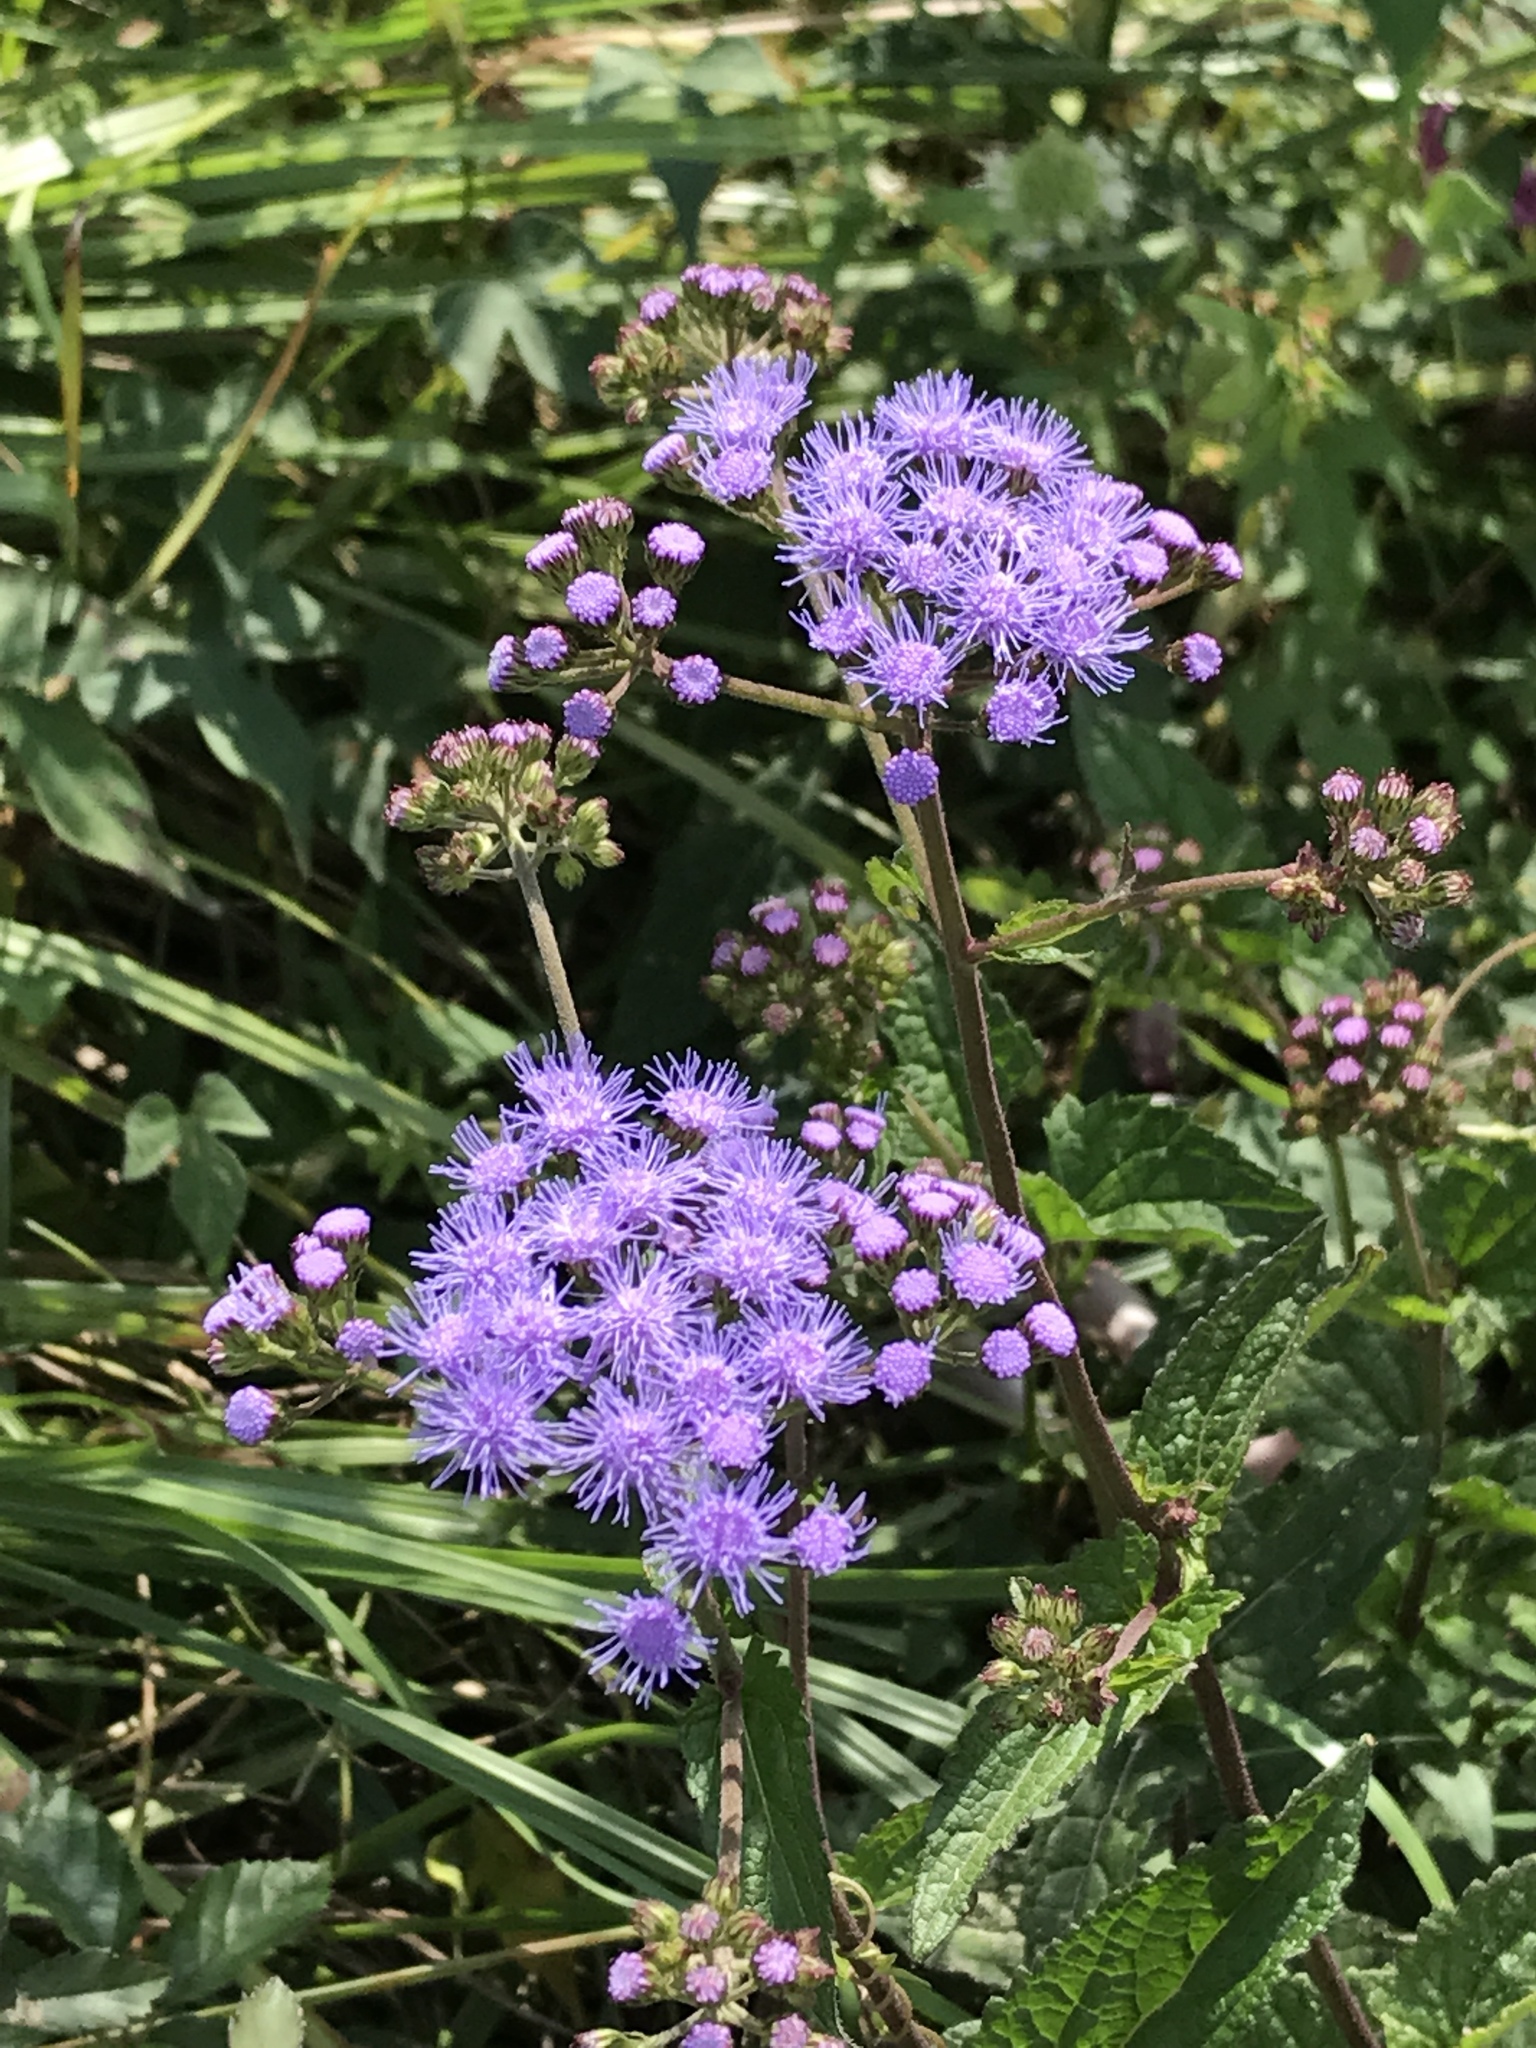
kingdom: Plantae
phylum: Tracheophyta
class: Magnoliopsida
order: Asterales
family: Asteraceae
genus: Conoclinium
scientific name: Conoclinium coelestinum
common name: Blue mistflower
